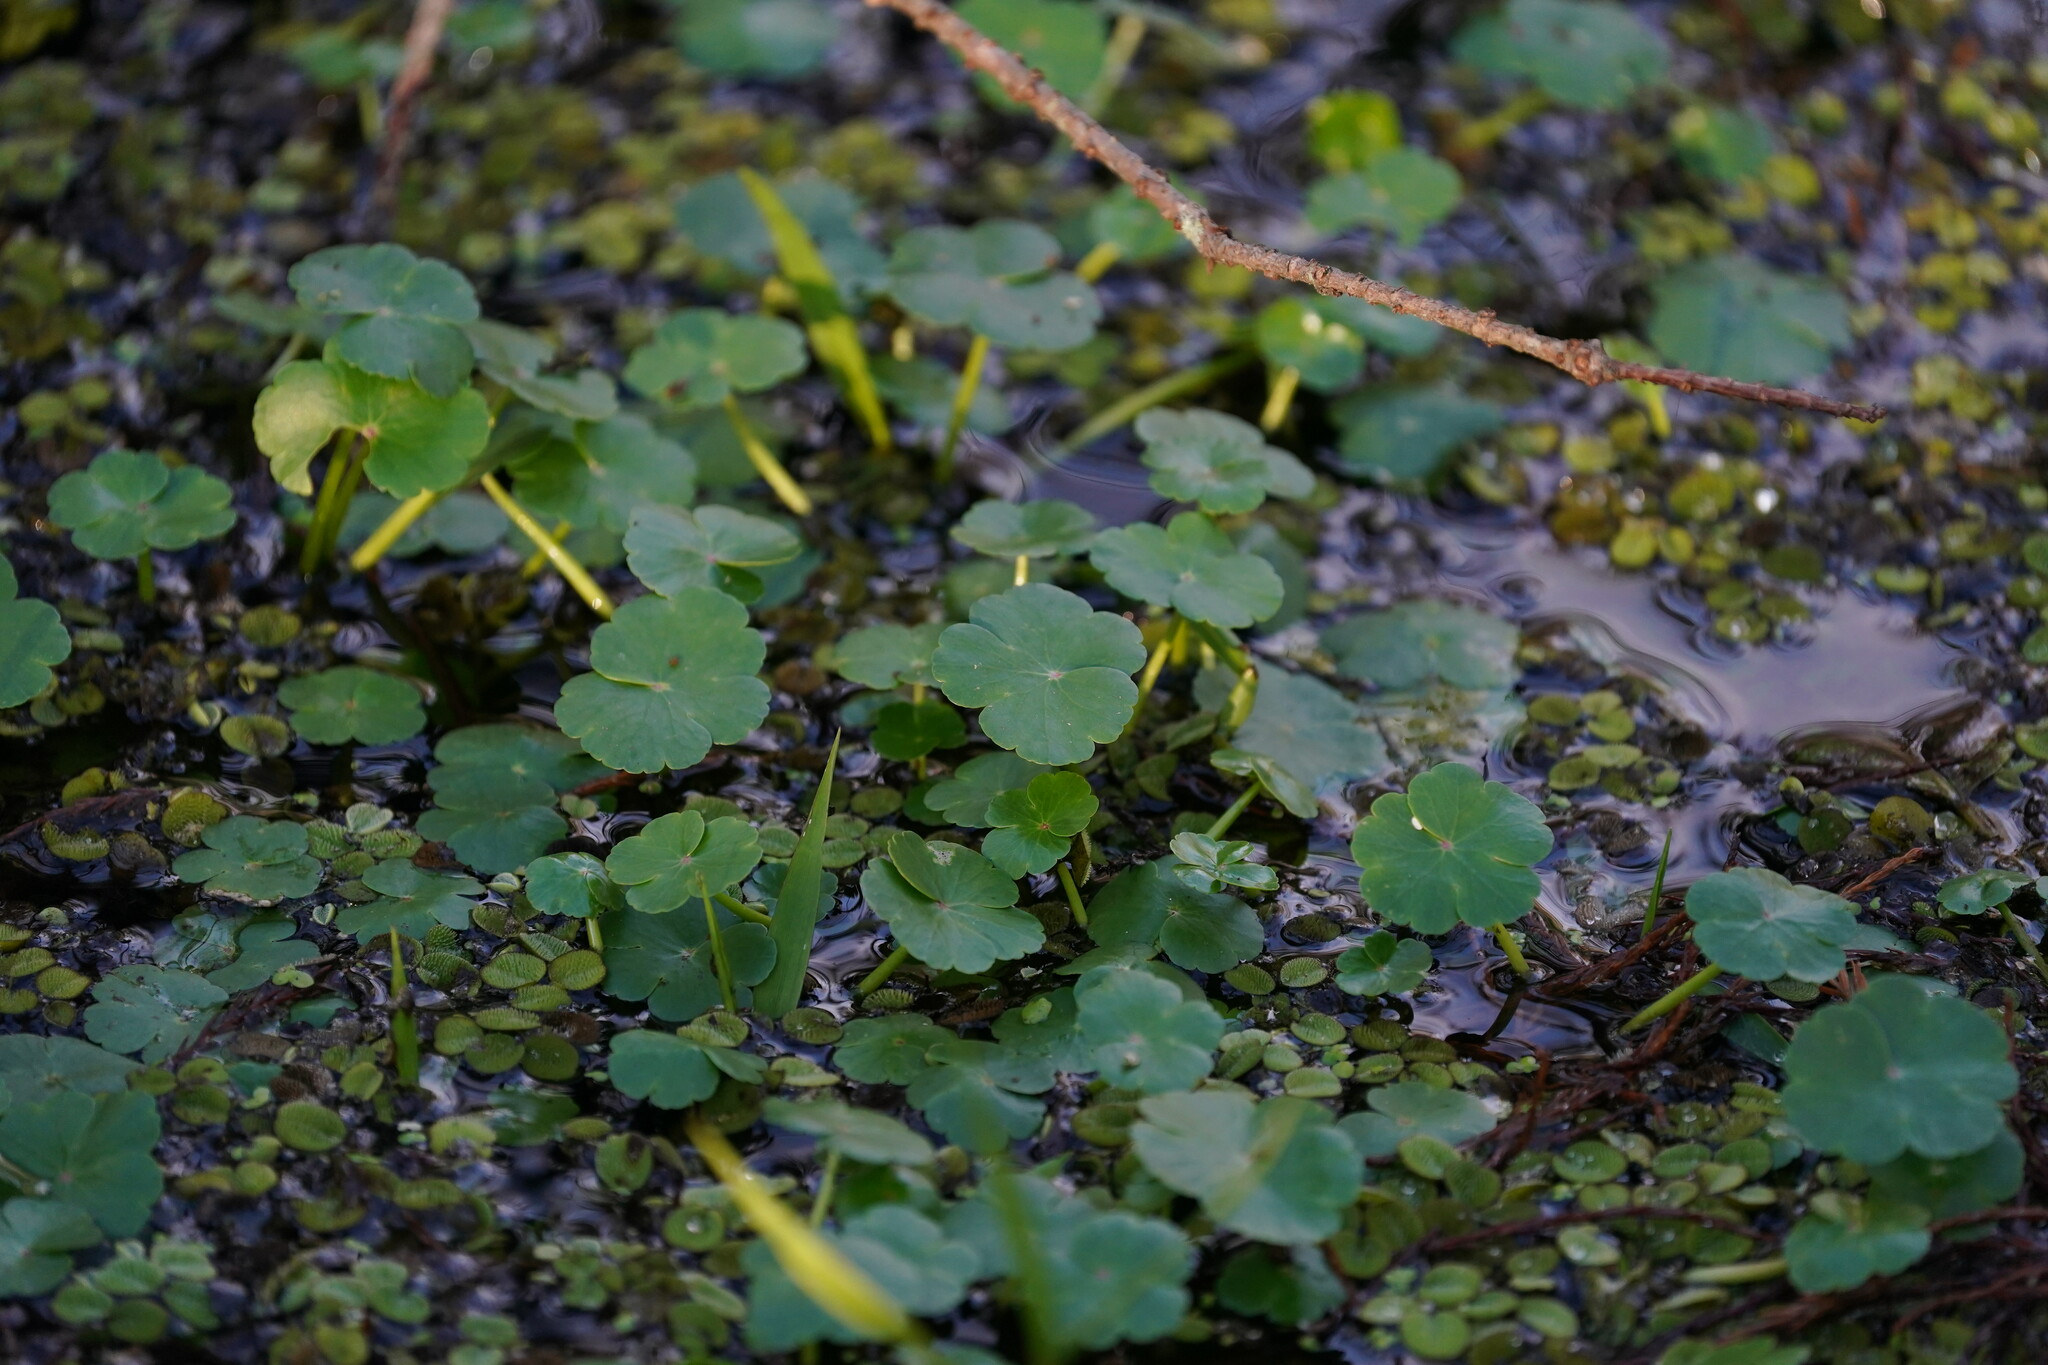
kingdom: Plantae
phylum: Tracheophyta
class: Magnoliopsida
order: Apiales
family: Araliaceae
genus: Hydrocotyle
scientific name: Hydrocotyle ranunculoides
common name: Floating pennywort
